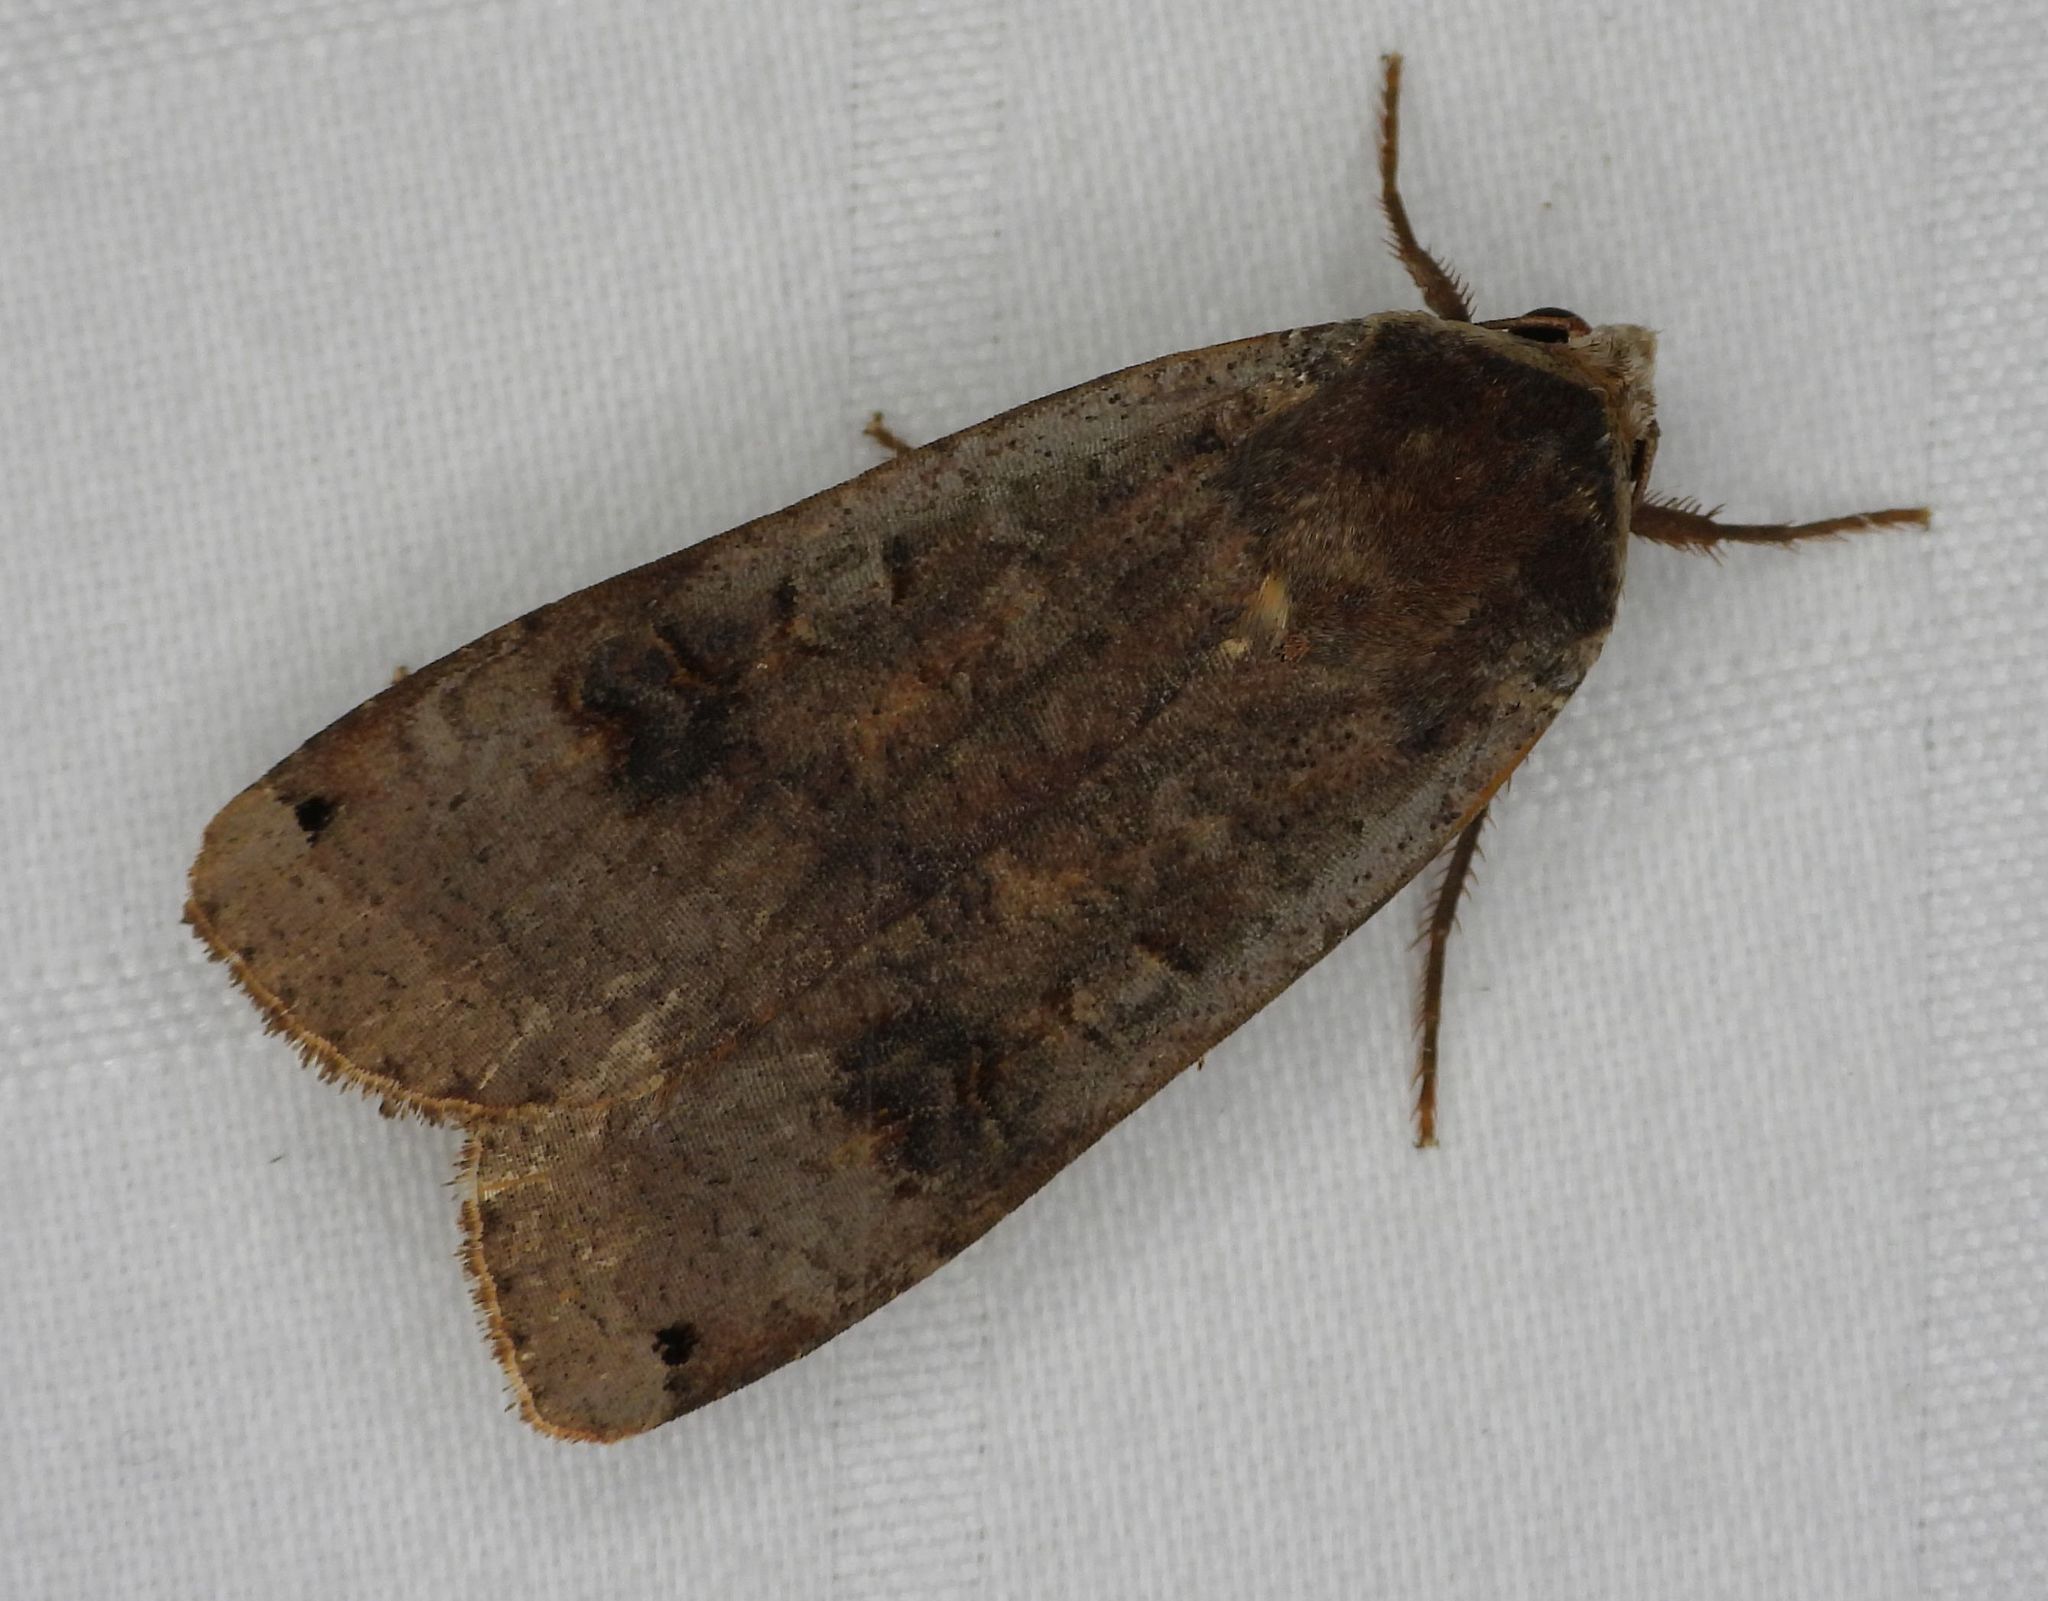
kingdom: Animalia
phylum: Arthropoda
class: Insecta
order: Lepidoptera
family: Noctuidae
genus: Noctua
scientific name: Noctua pronuba
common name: Large yellow underwing
